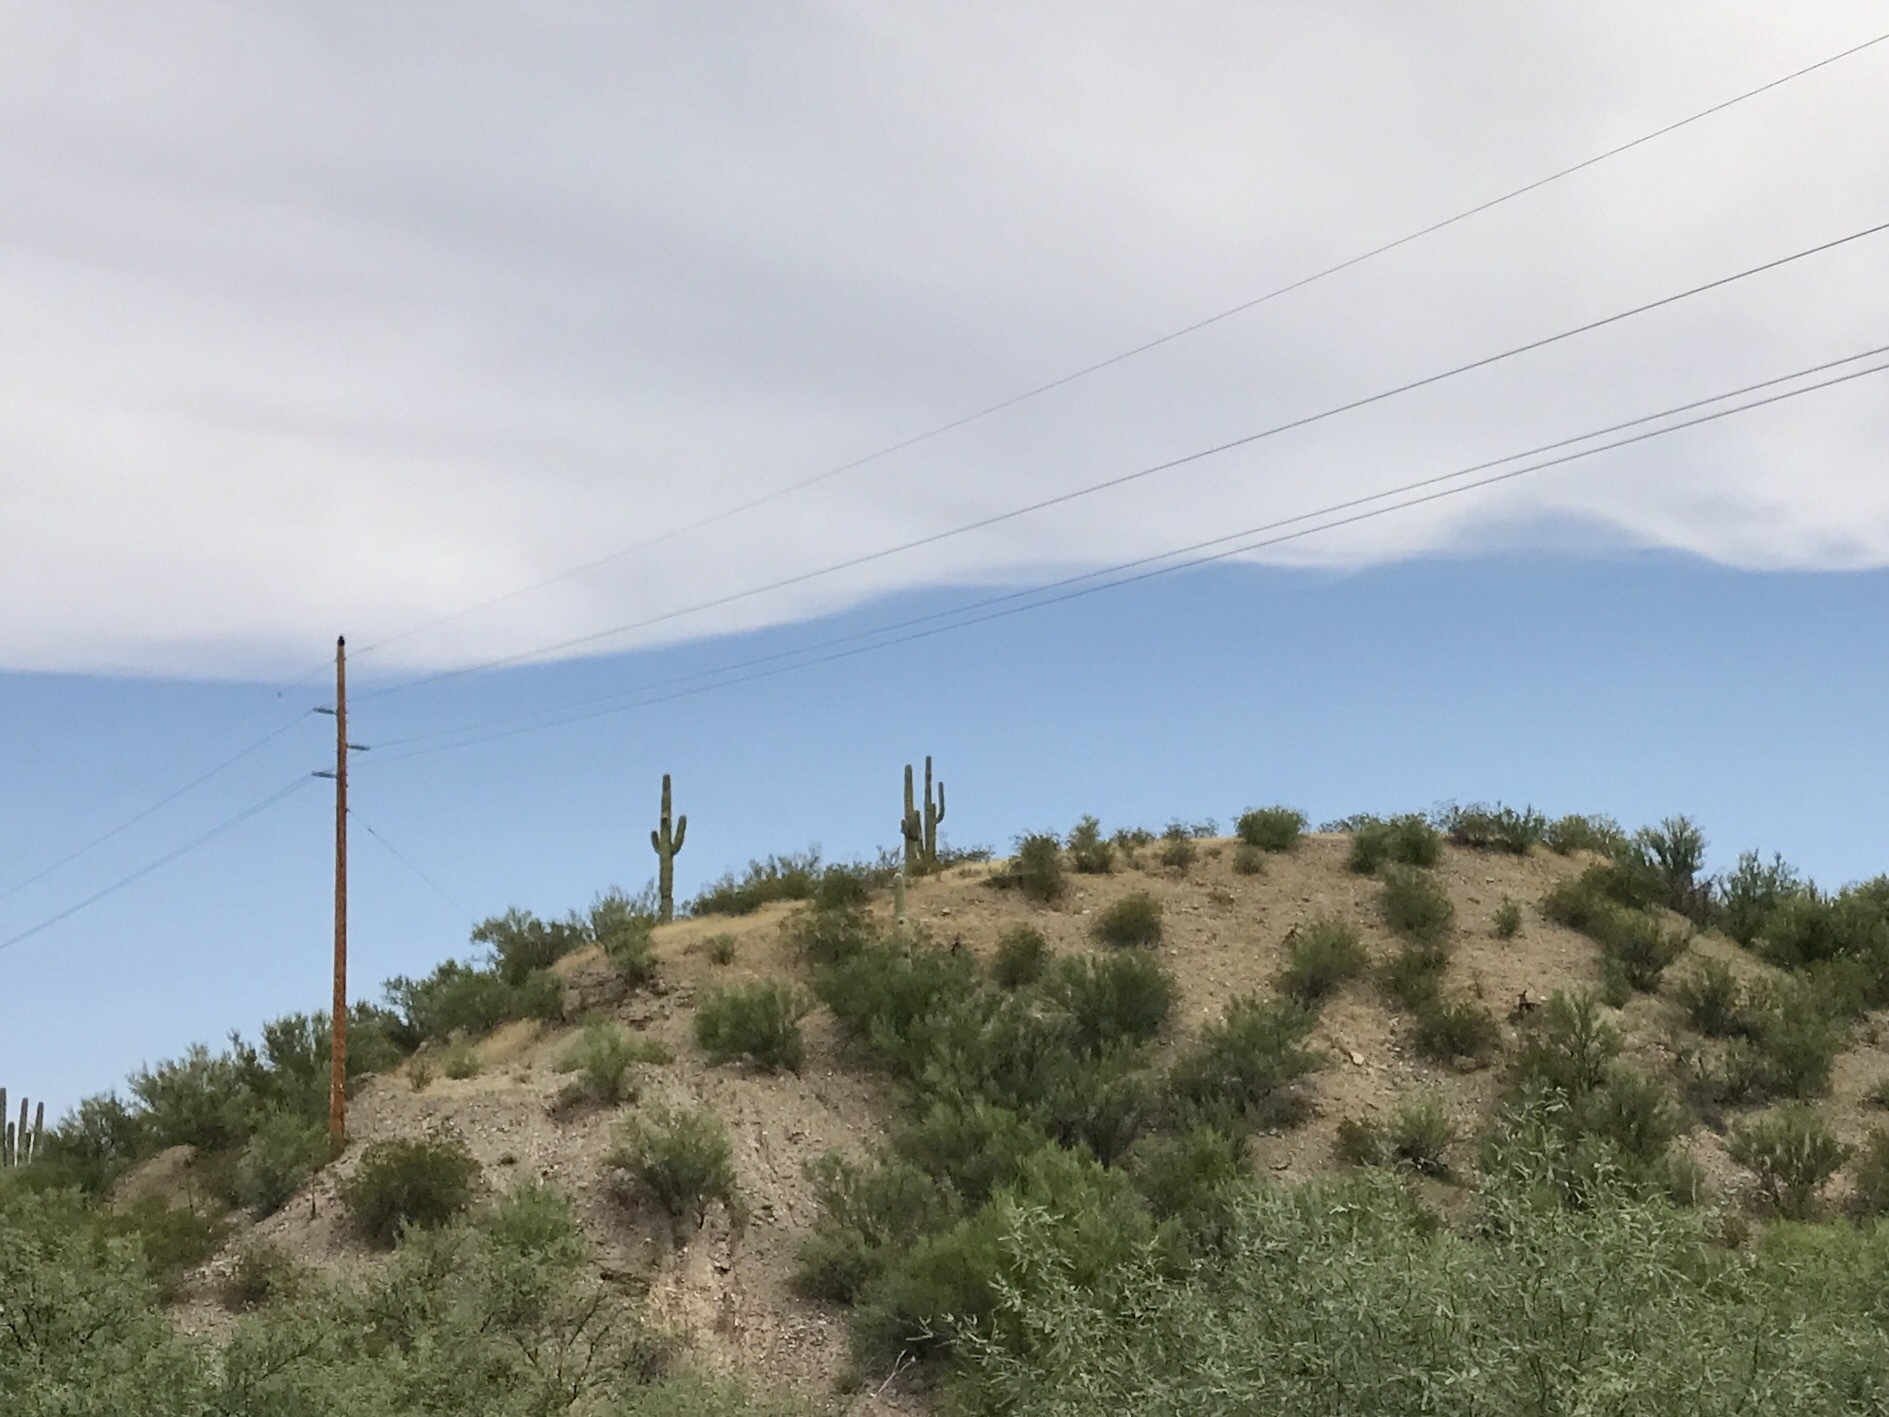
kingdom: Plantae
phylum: Tracheophyta
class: Magnoliopsida
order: Caryophyllales
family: Cactaceae
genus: Carnegiea
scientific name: Carnegiea gigantea
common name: Saguaro
